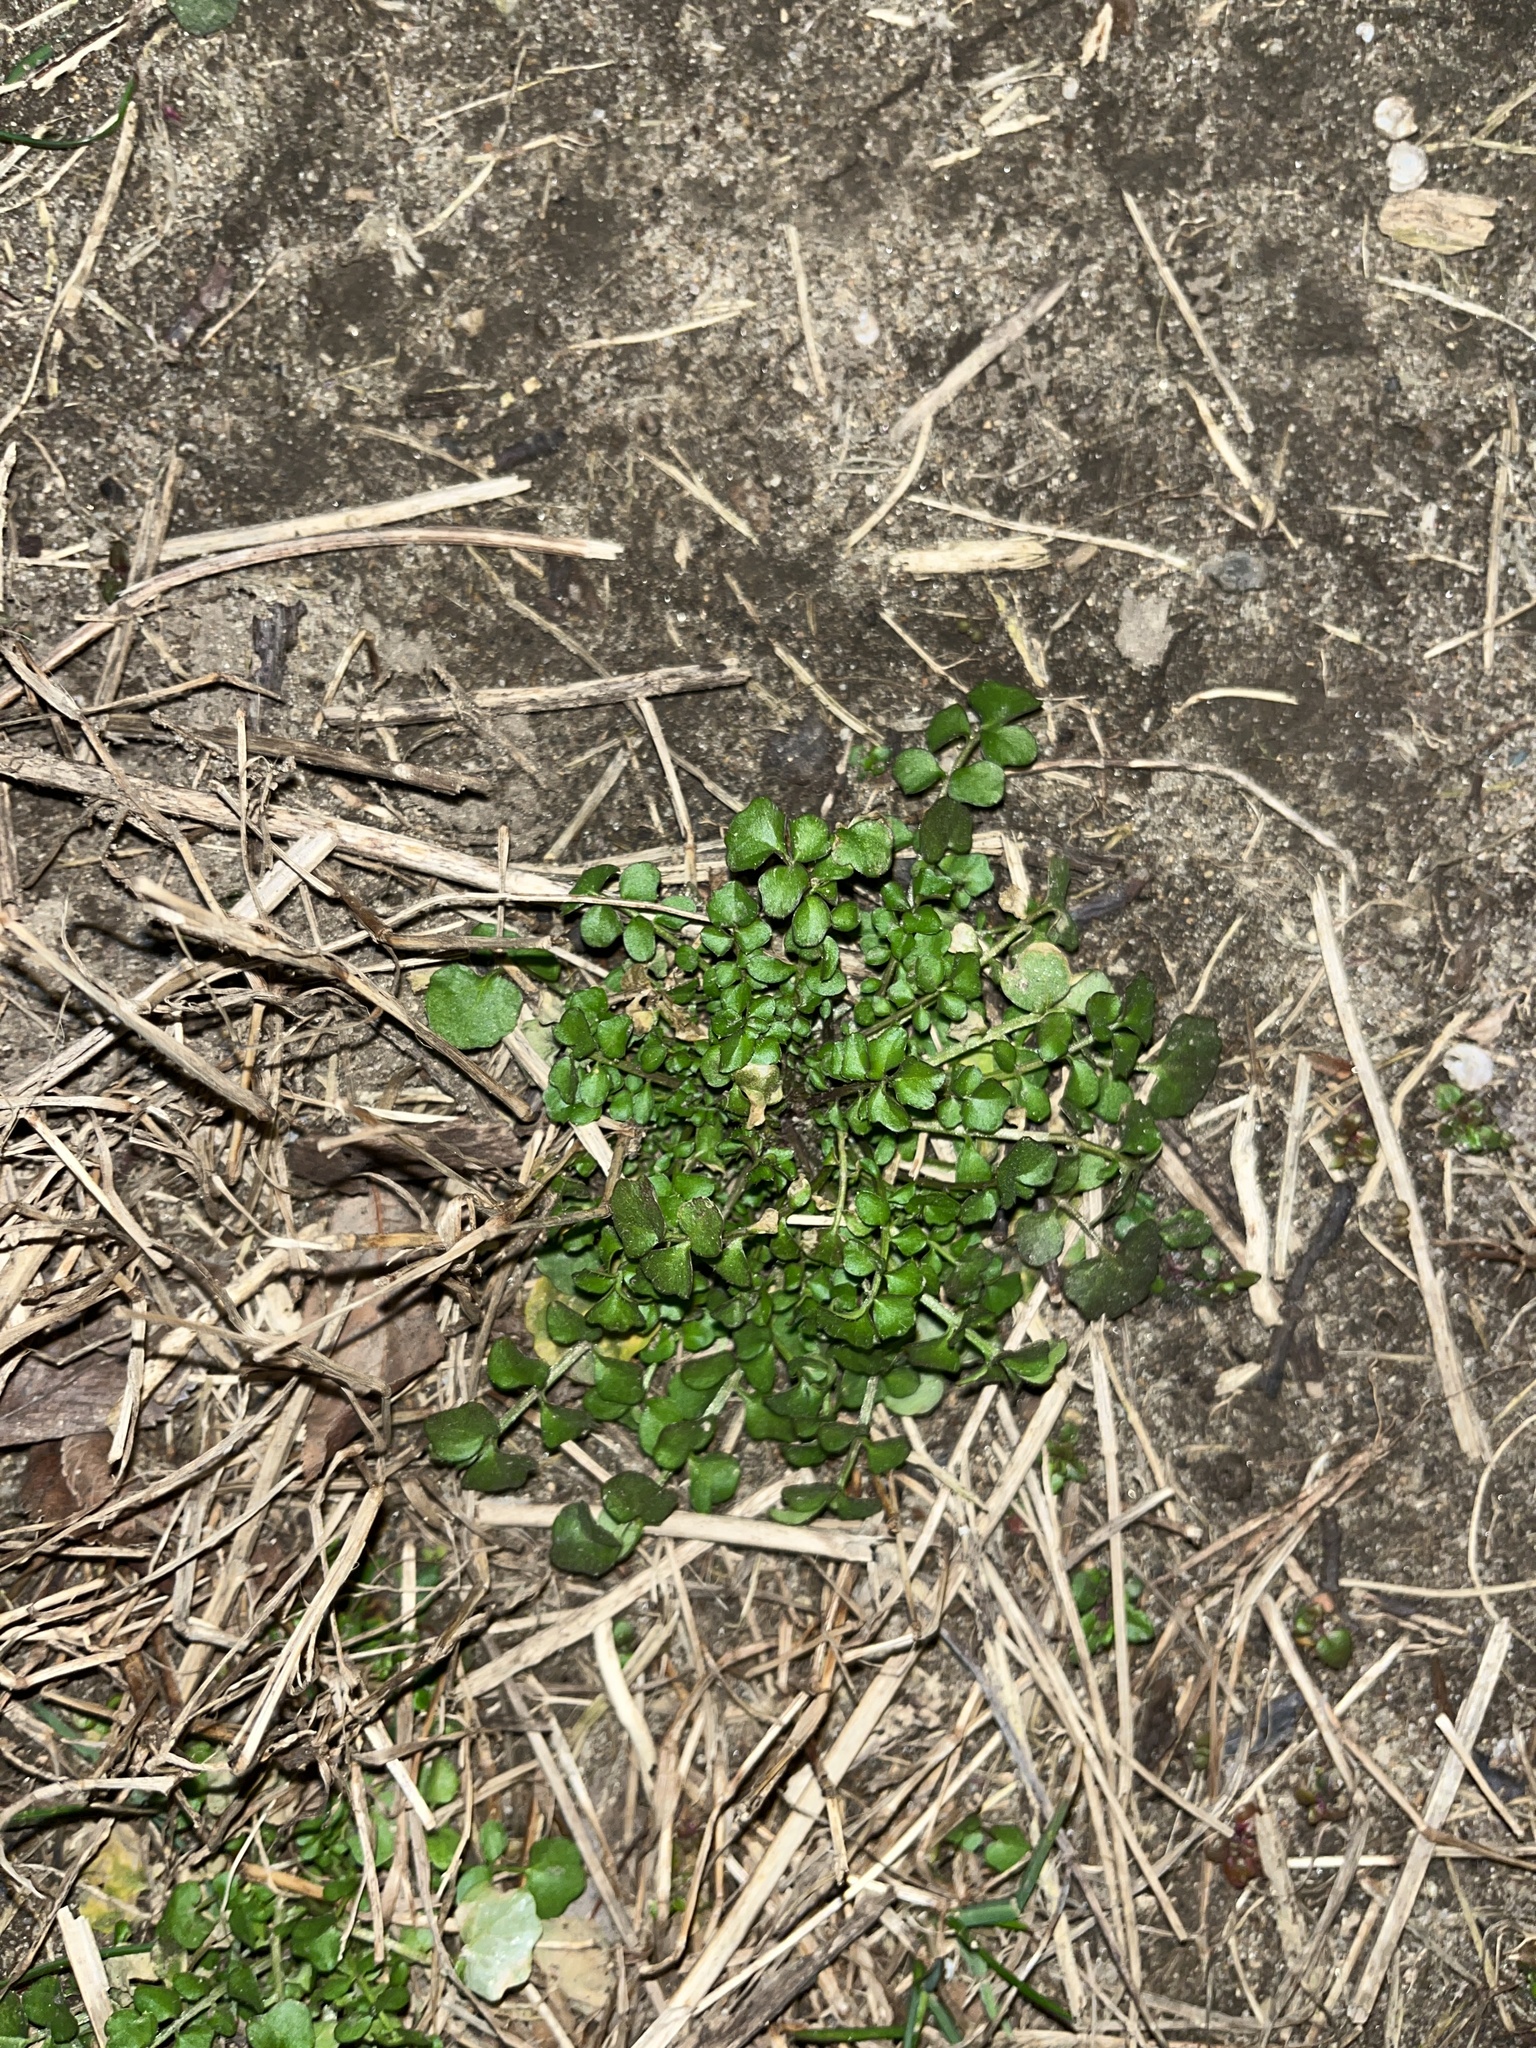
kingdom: Plantae
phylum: Tracheophyta
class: Magnoliopsida
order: Brassicales
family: Brassicaceae
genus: Cardamine
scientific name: Cardamine hirsuta
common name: Hairy bittercress
